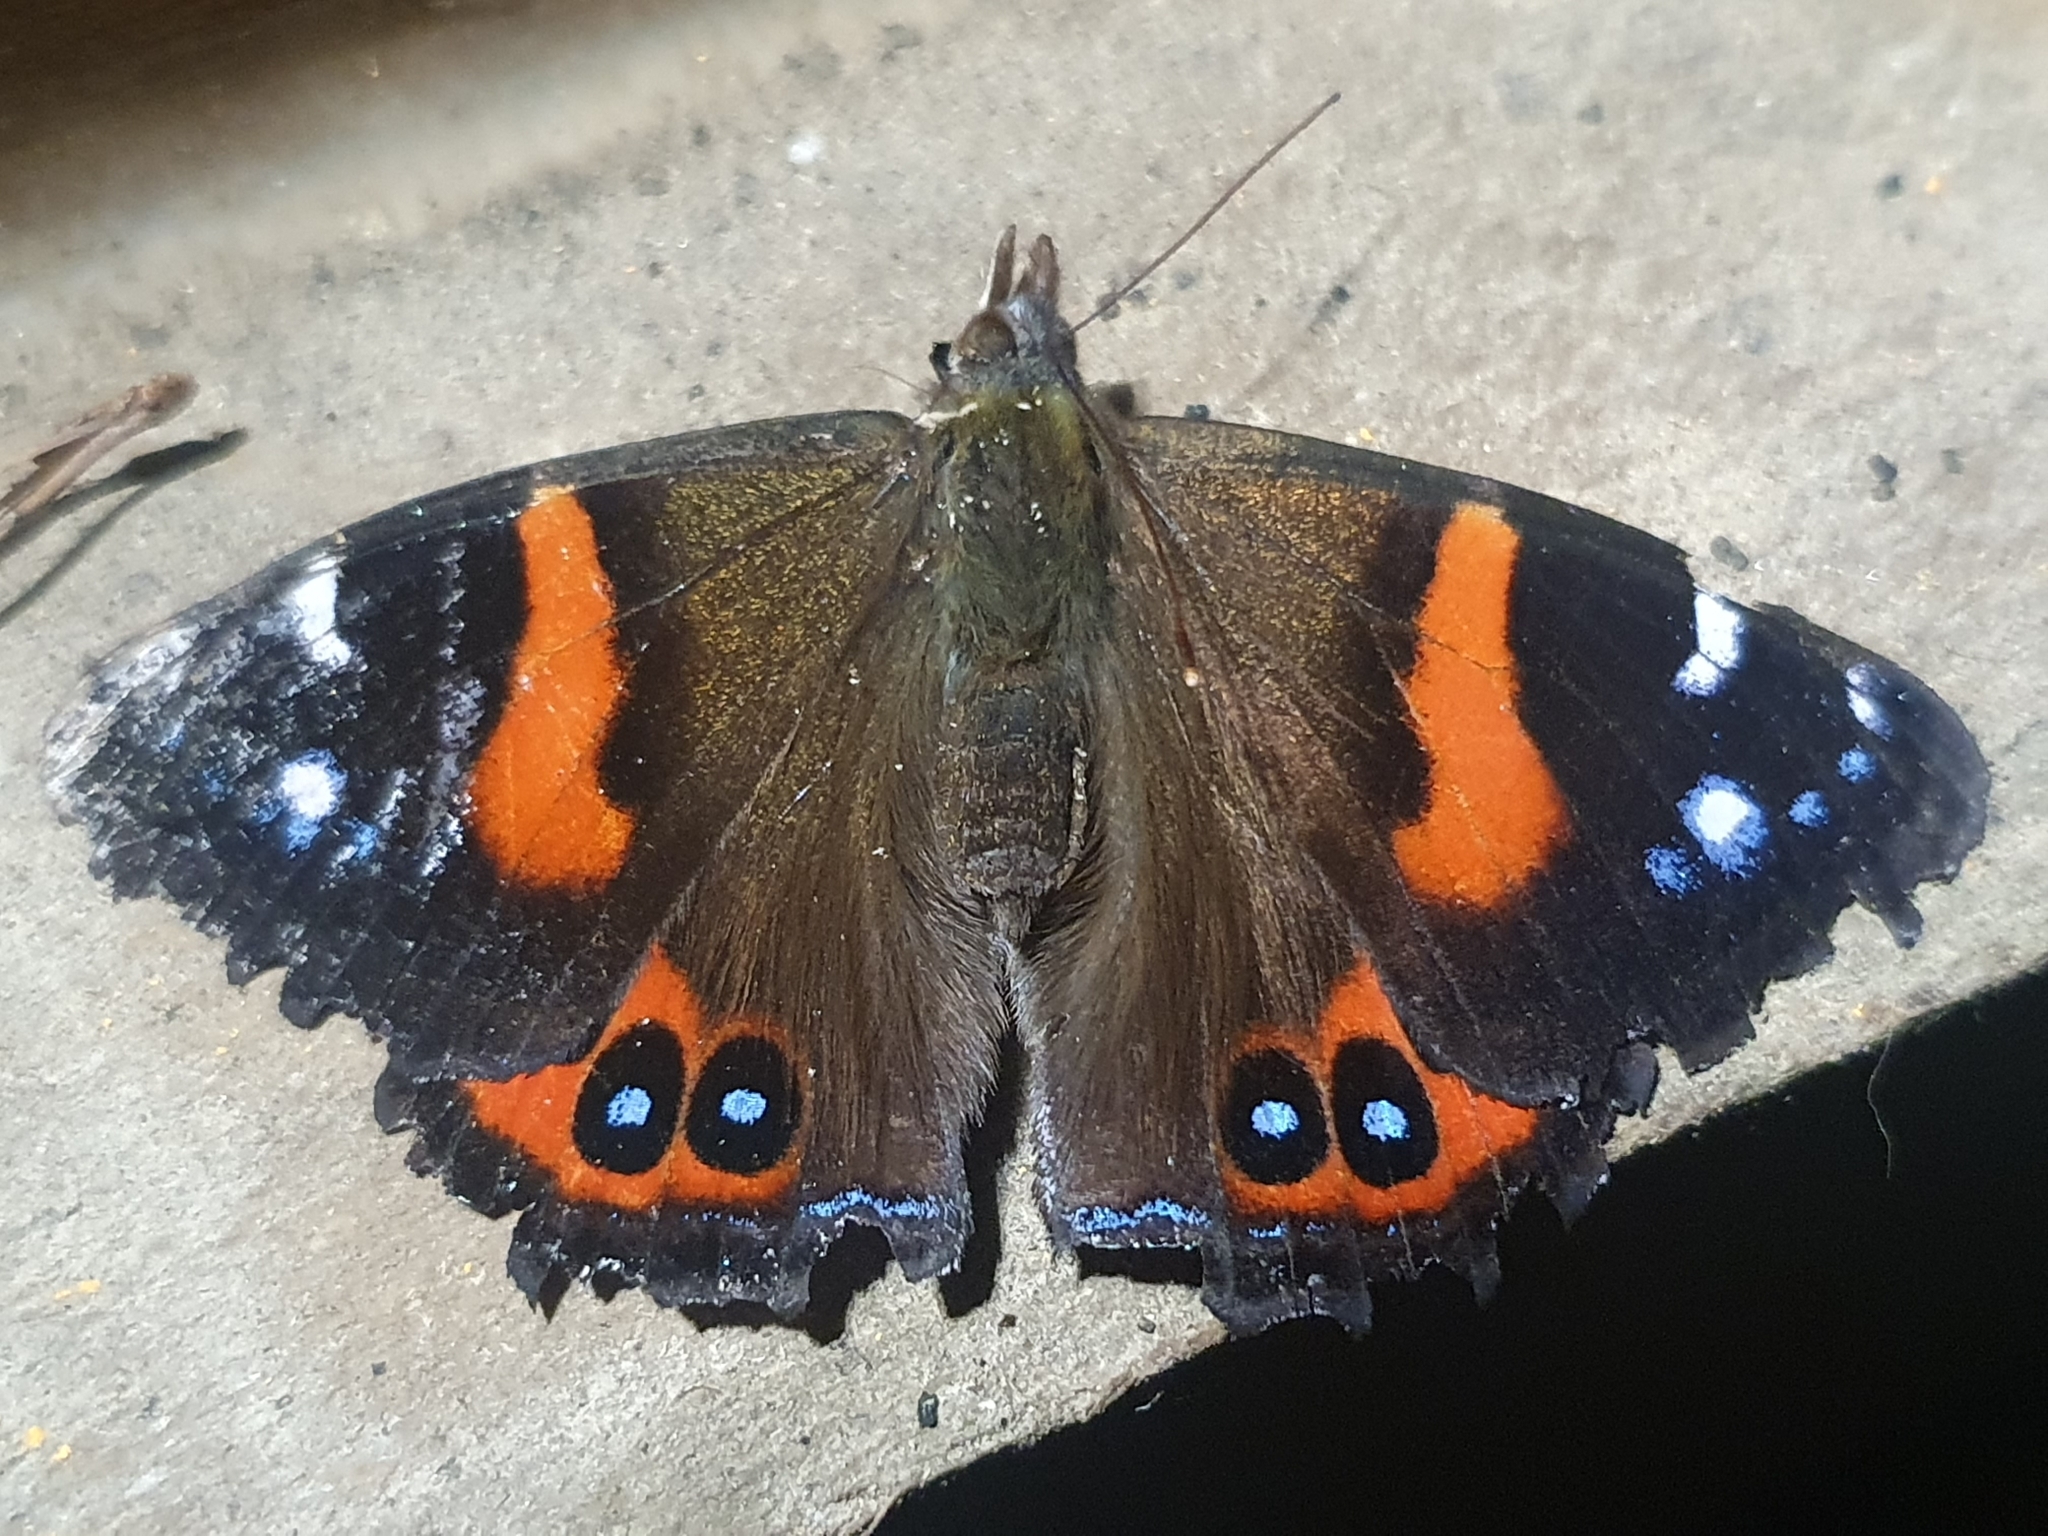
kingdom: Animalia
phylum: Arthropoda
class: Insecta
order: Lepidoptera
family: Nymphalidae
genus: Vanessa
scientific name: Vanessa gonerilla
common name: New zealand red admiral
